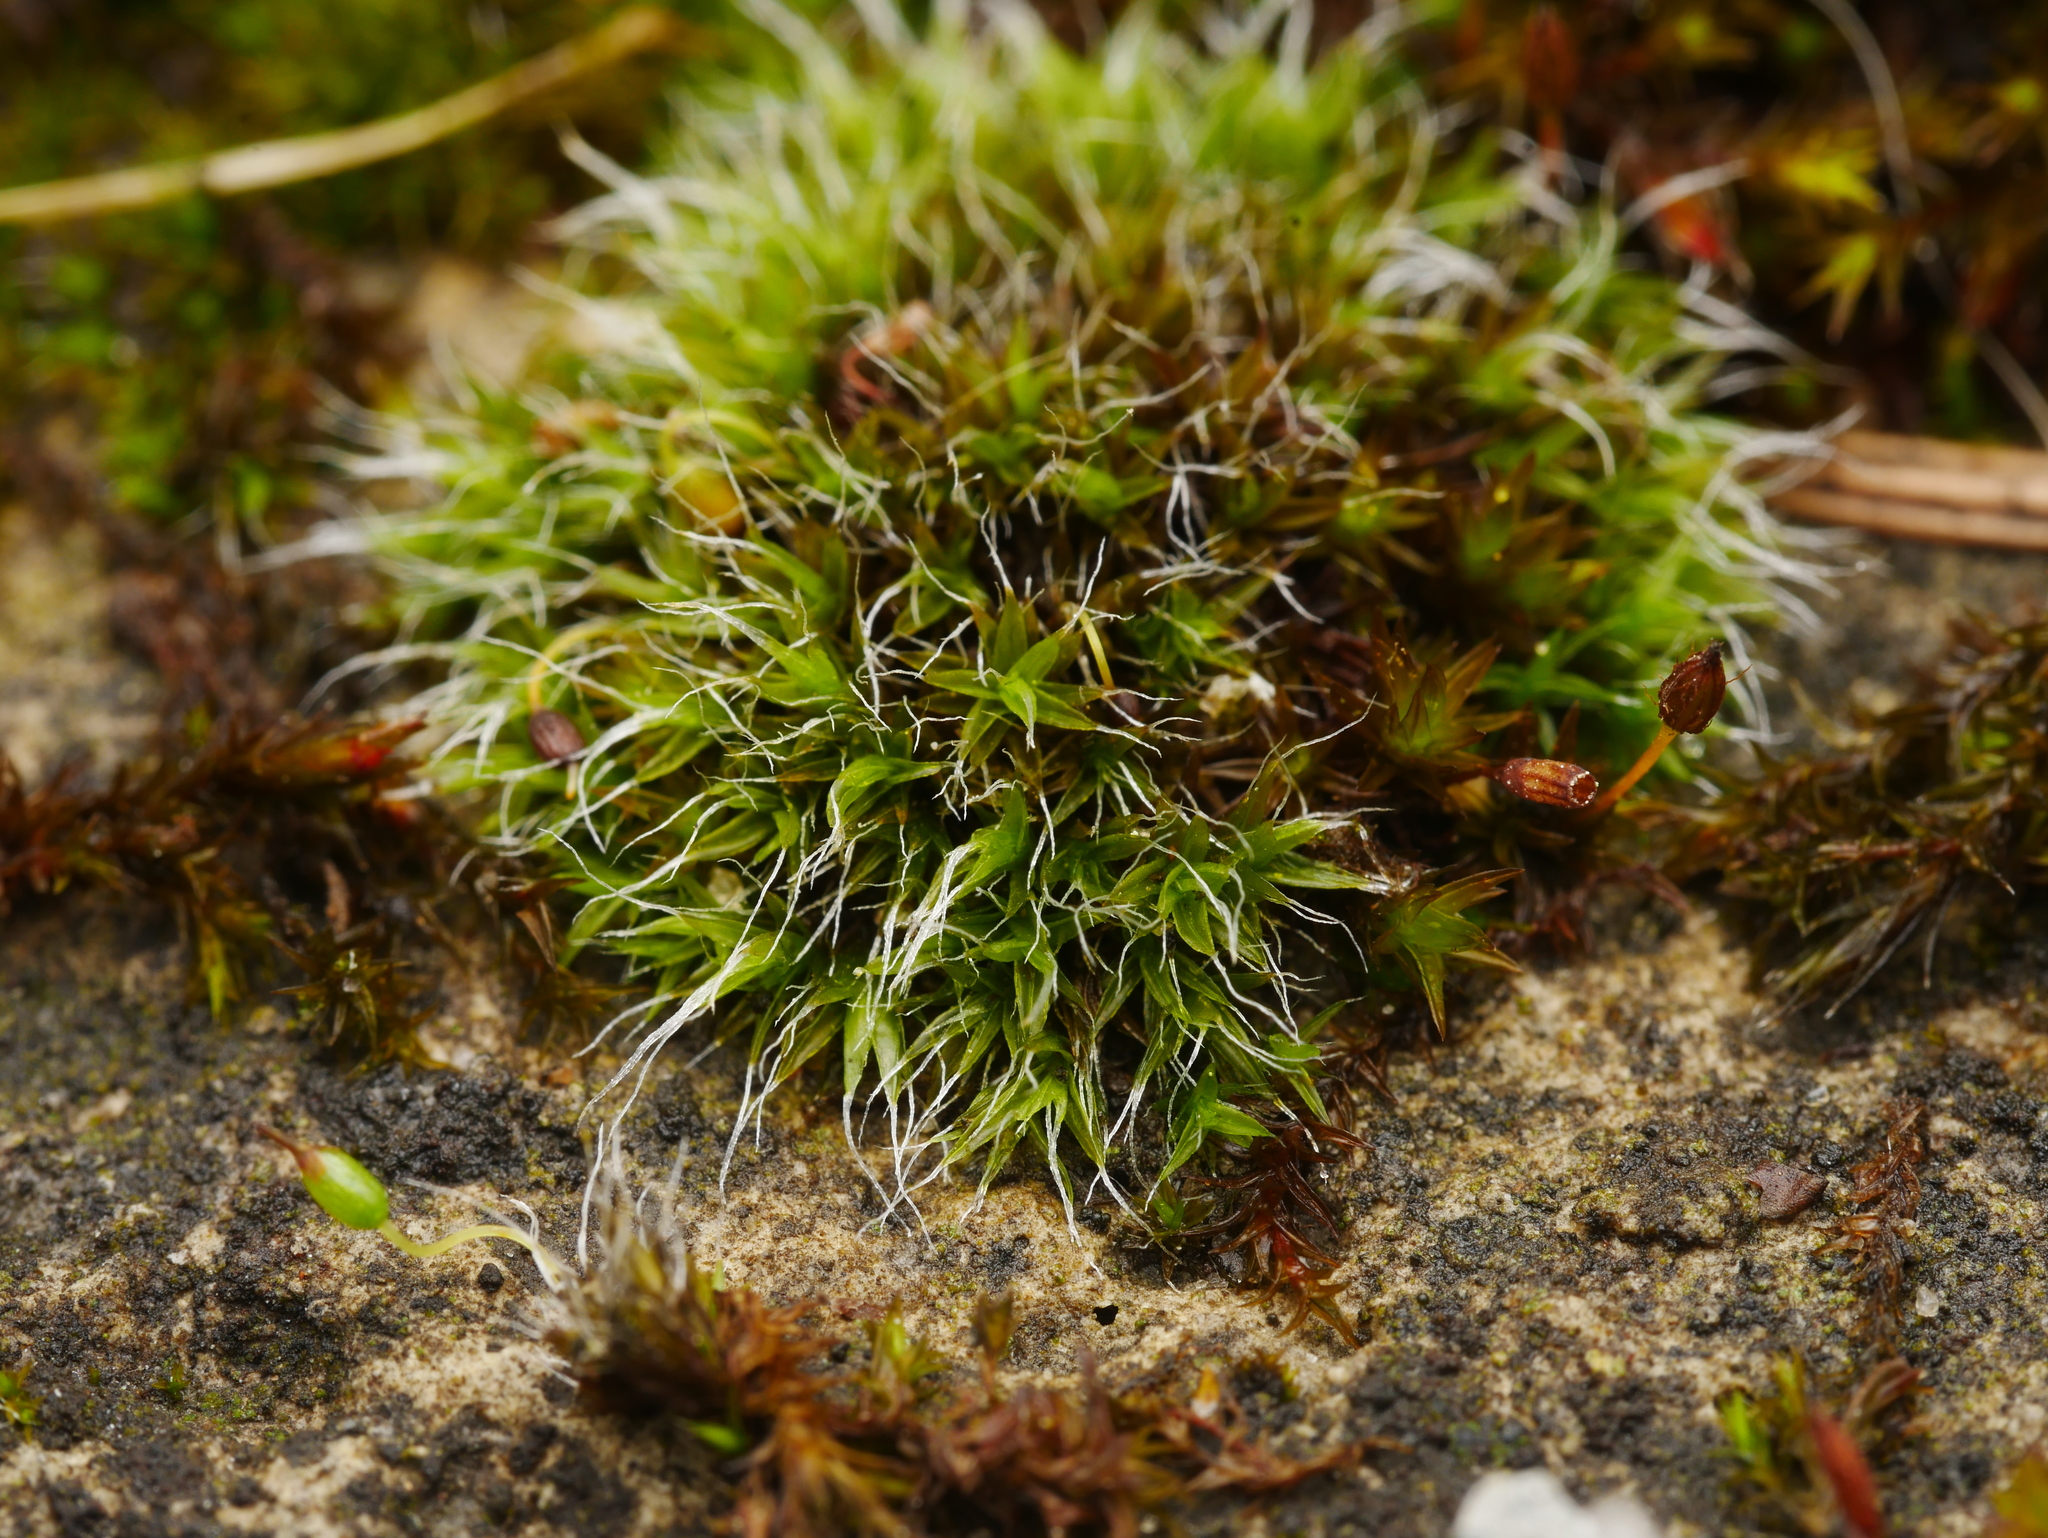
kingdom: Plantae
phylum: Bryophyta
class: Bryopsida
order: Grimmiales
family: Grimmiaceae
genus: Grimmia
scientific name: Grimmia pulvinata
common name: Grey-cushioned grimmia
